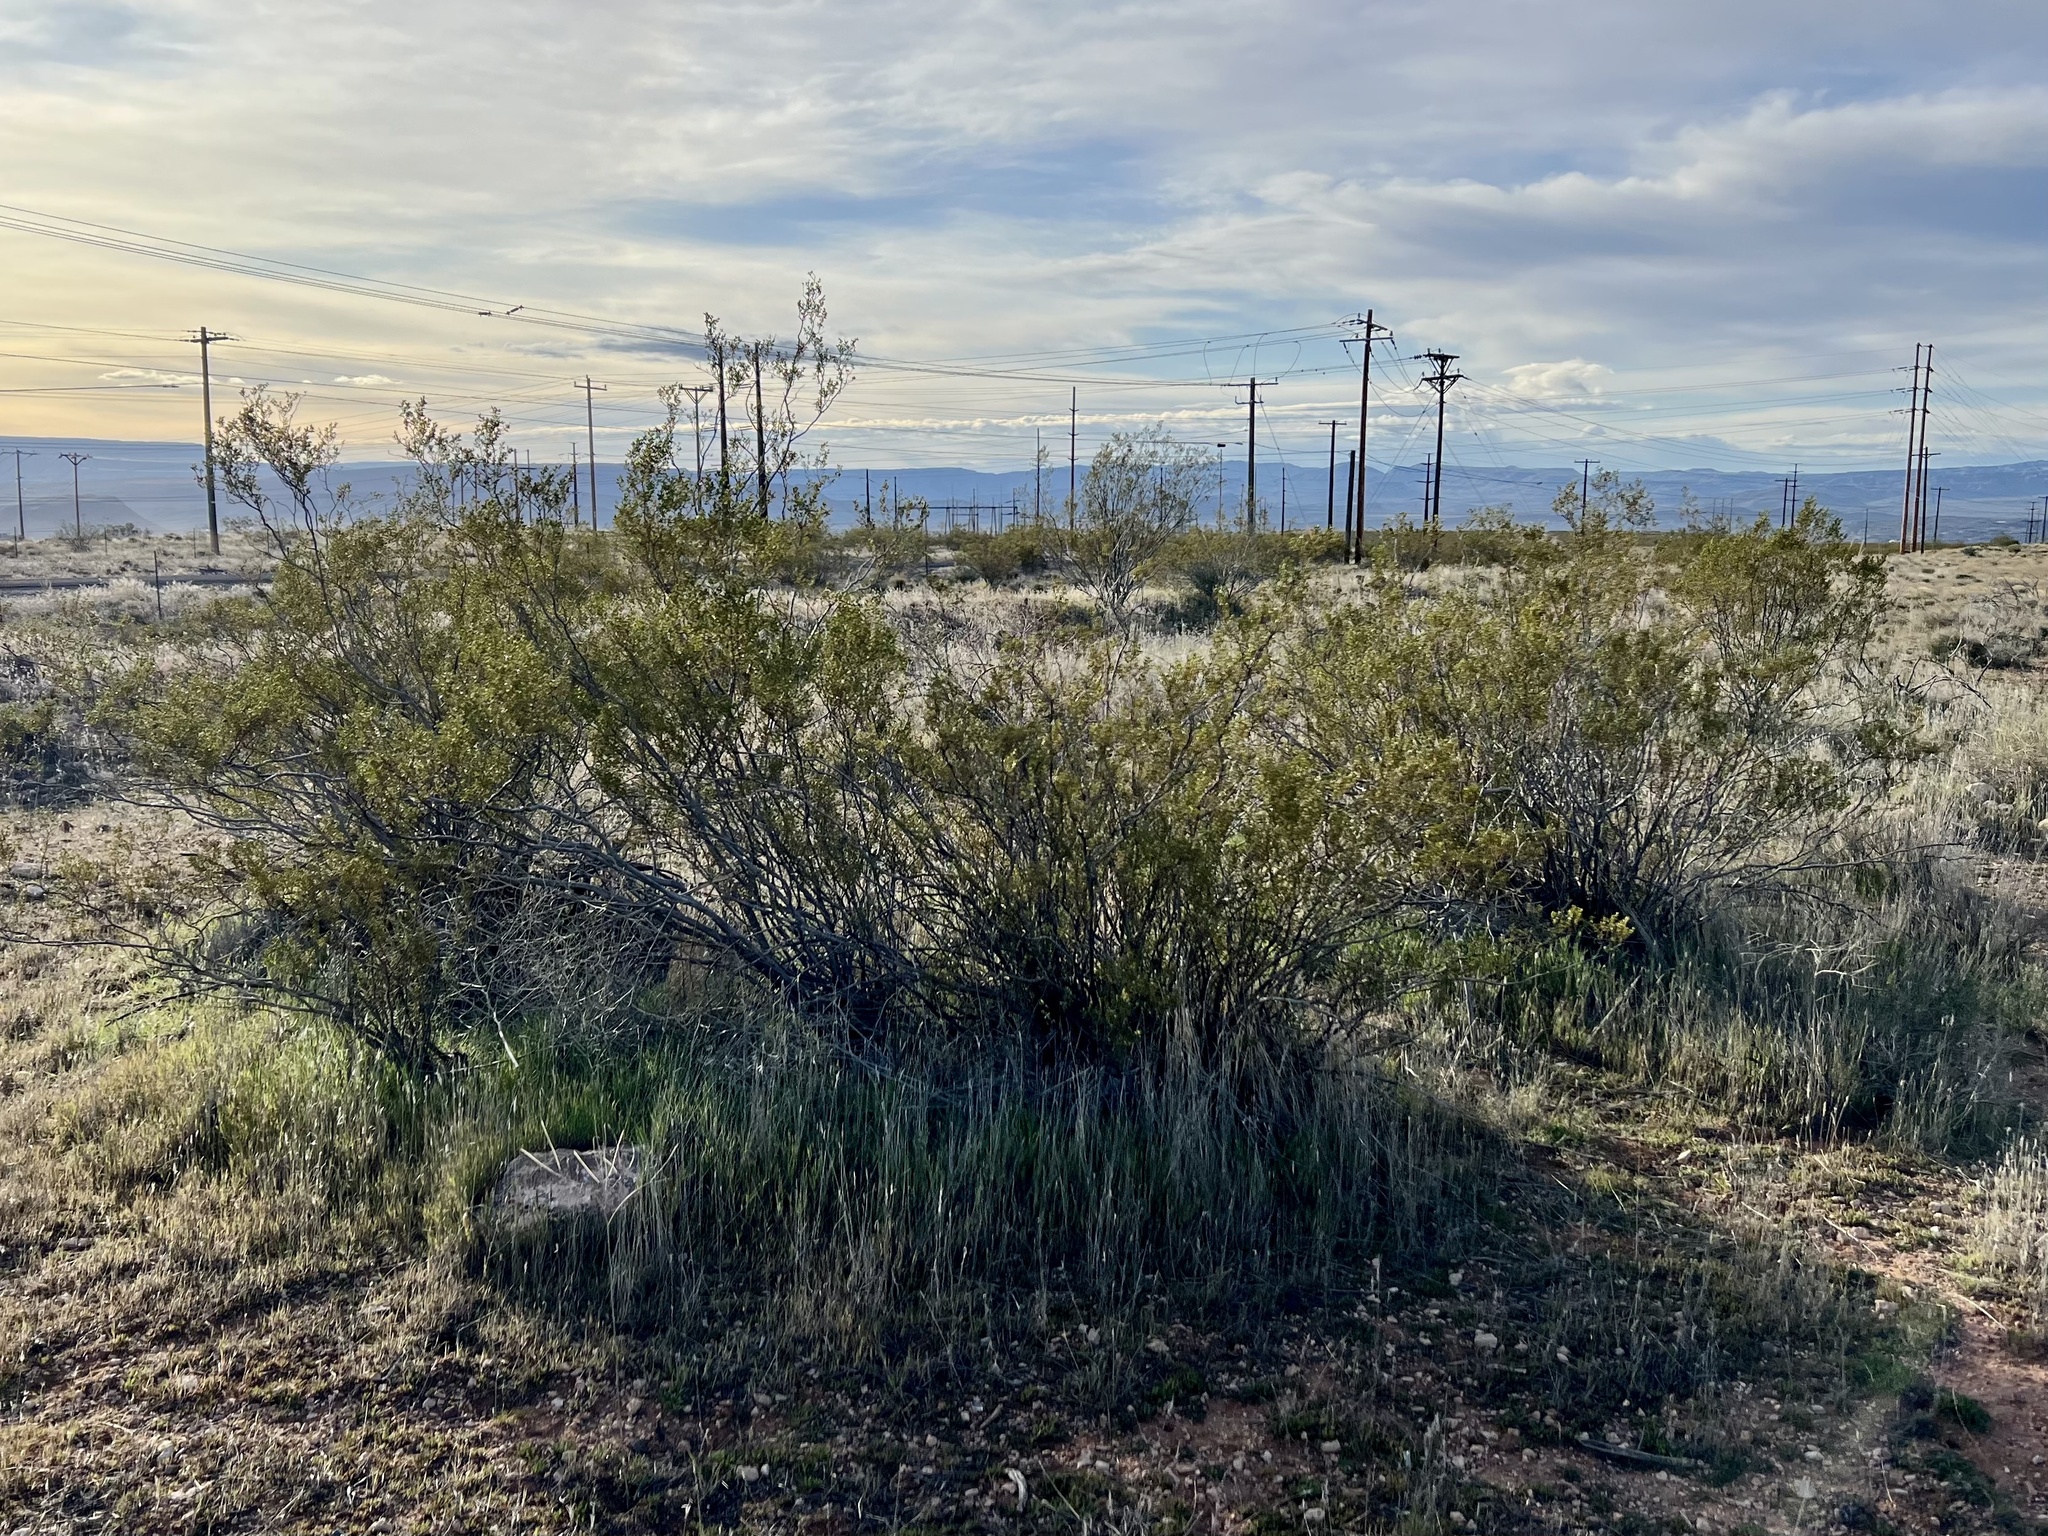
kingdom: Plantae
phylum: Tracheophyta
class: Magnoliopsida
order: Zygophyllales
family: Zygophyllaceae
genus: Larrea
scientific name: Larrea tridentata
